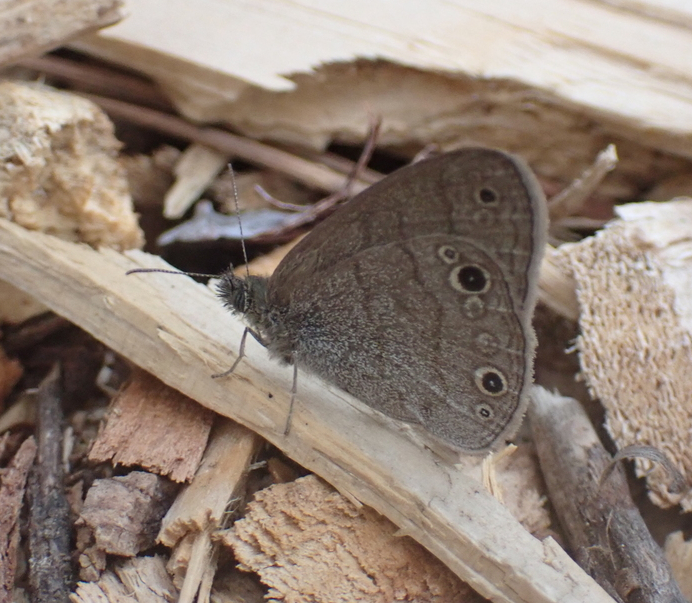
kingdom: Animalia
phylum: Arthropoda
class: Insecta
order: Lepidoptera
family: Nymphalidae
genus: Hermeuptychia
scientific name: Hermeuptychia hermes
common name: Hermes satyr
